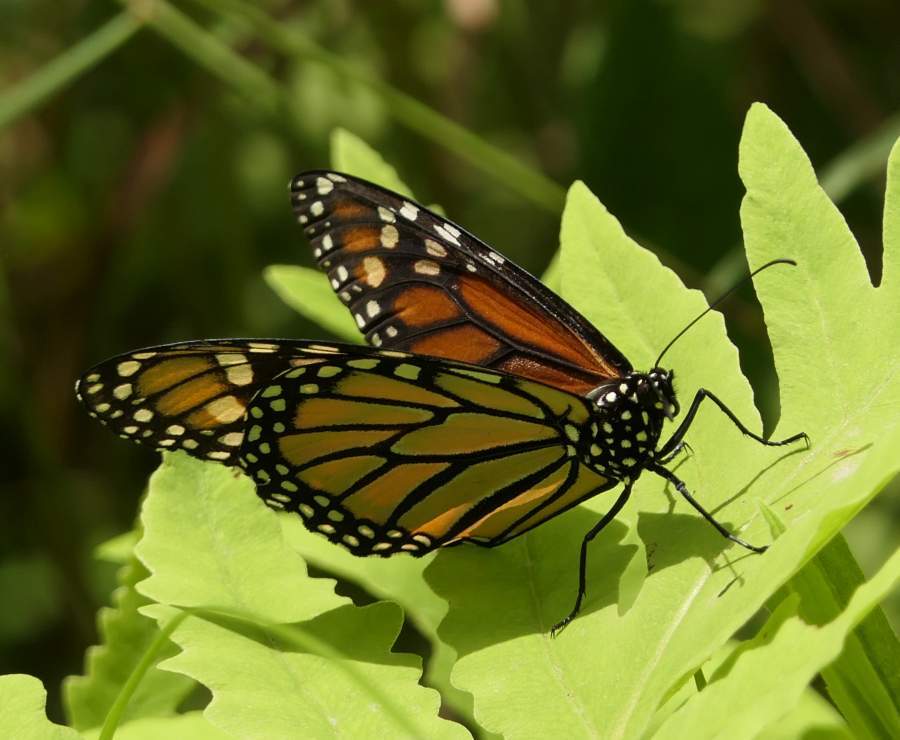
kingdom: Animalia
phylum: Arthropoda
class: Insecta
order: Lepidoptera
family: Nymphalidae
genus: Danaus
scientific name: Danaus plexippus
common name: Monarch
